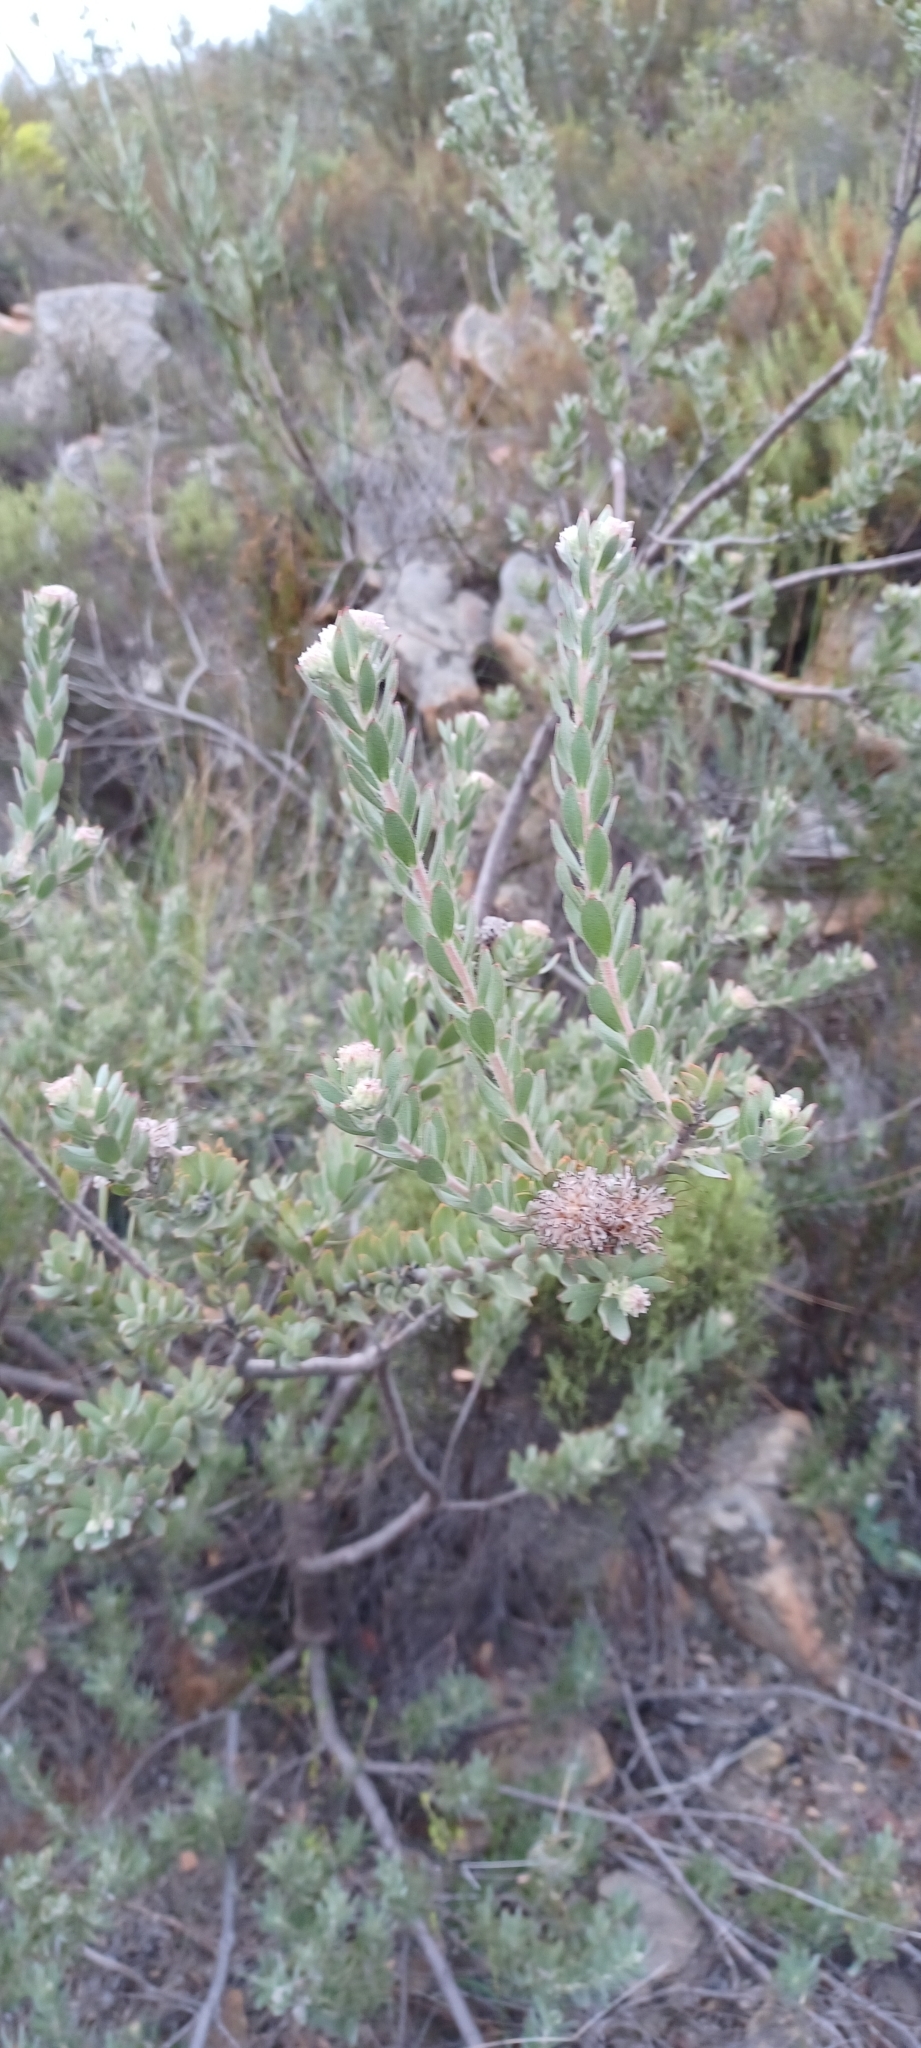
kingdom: Plantae
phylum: Tracheophyta
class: Magnoliopsida
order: Proteales
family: Proteaceae
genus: Leucospermum
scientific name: Leucospermum calligerum
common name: Arid pincushion
